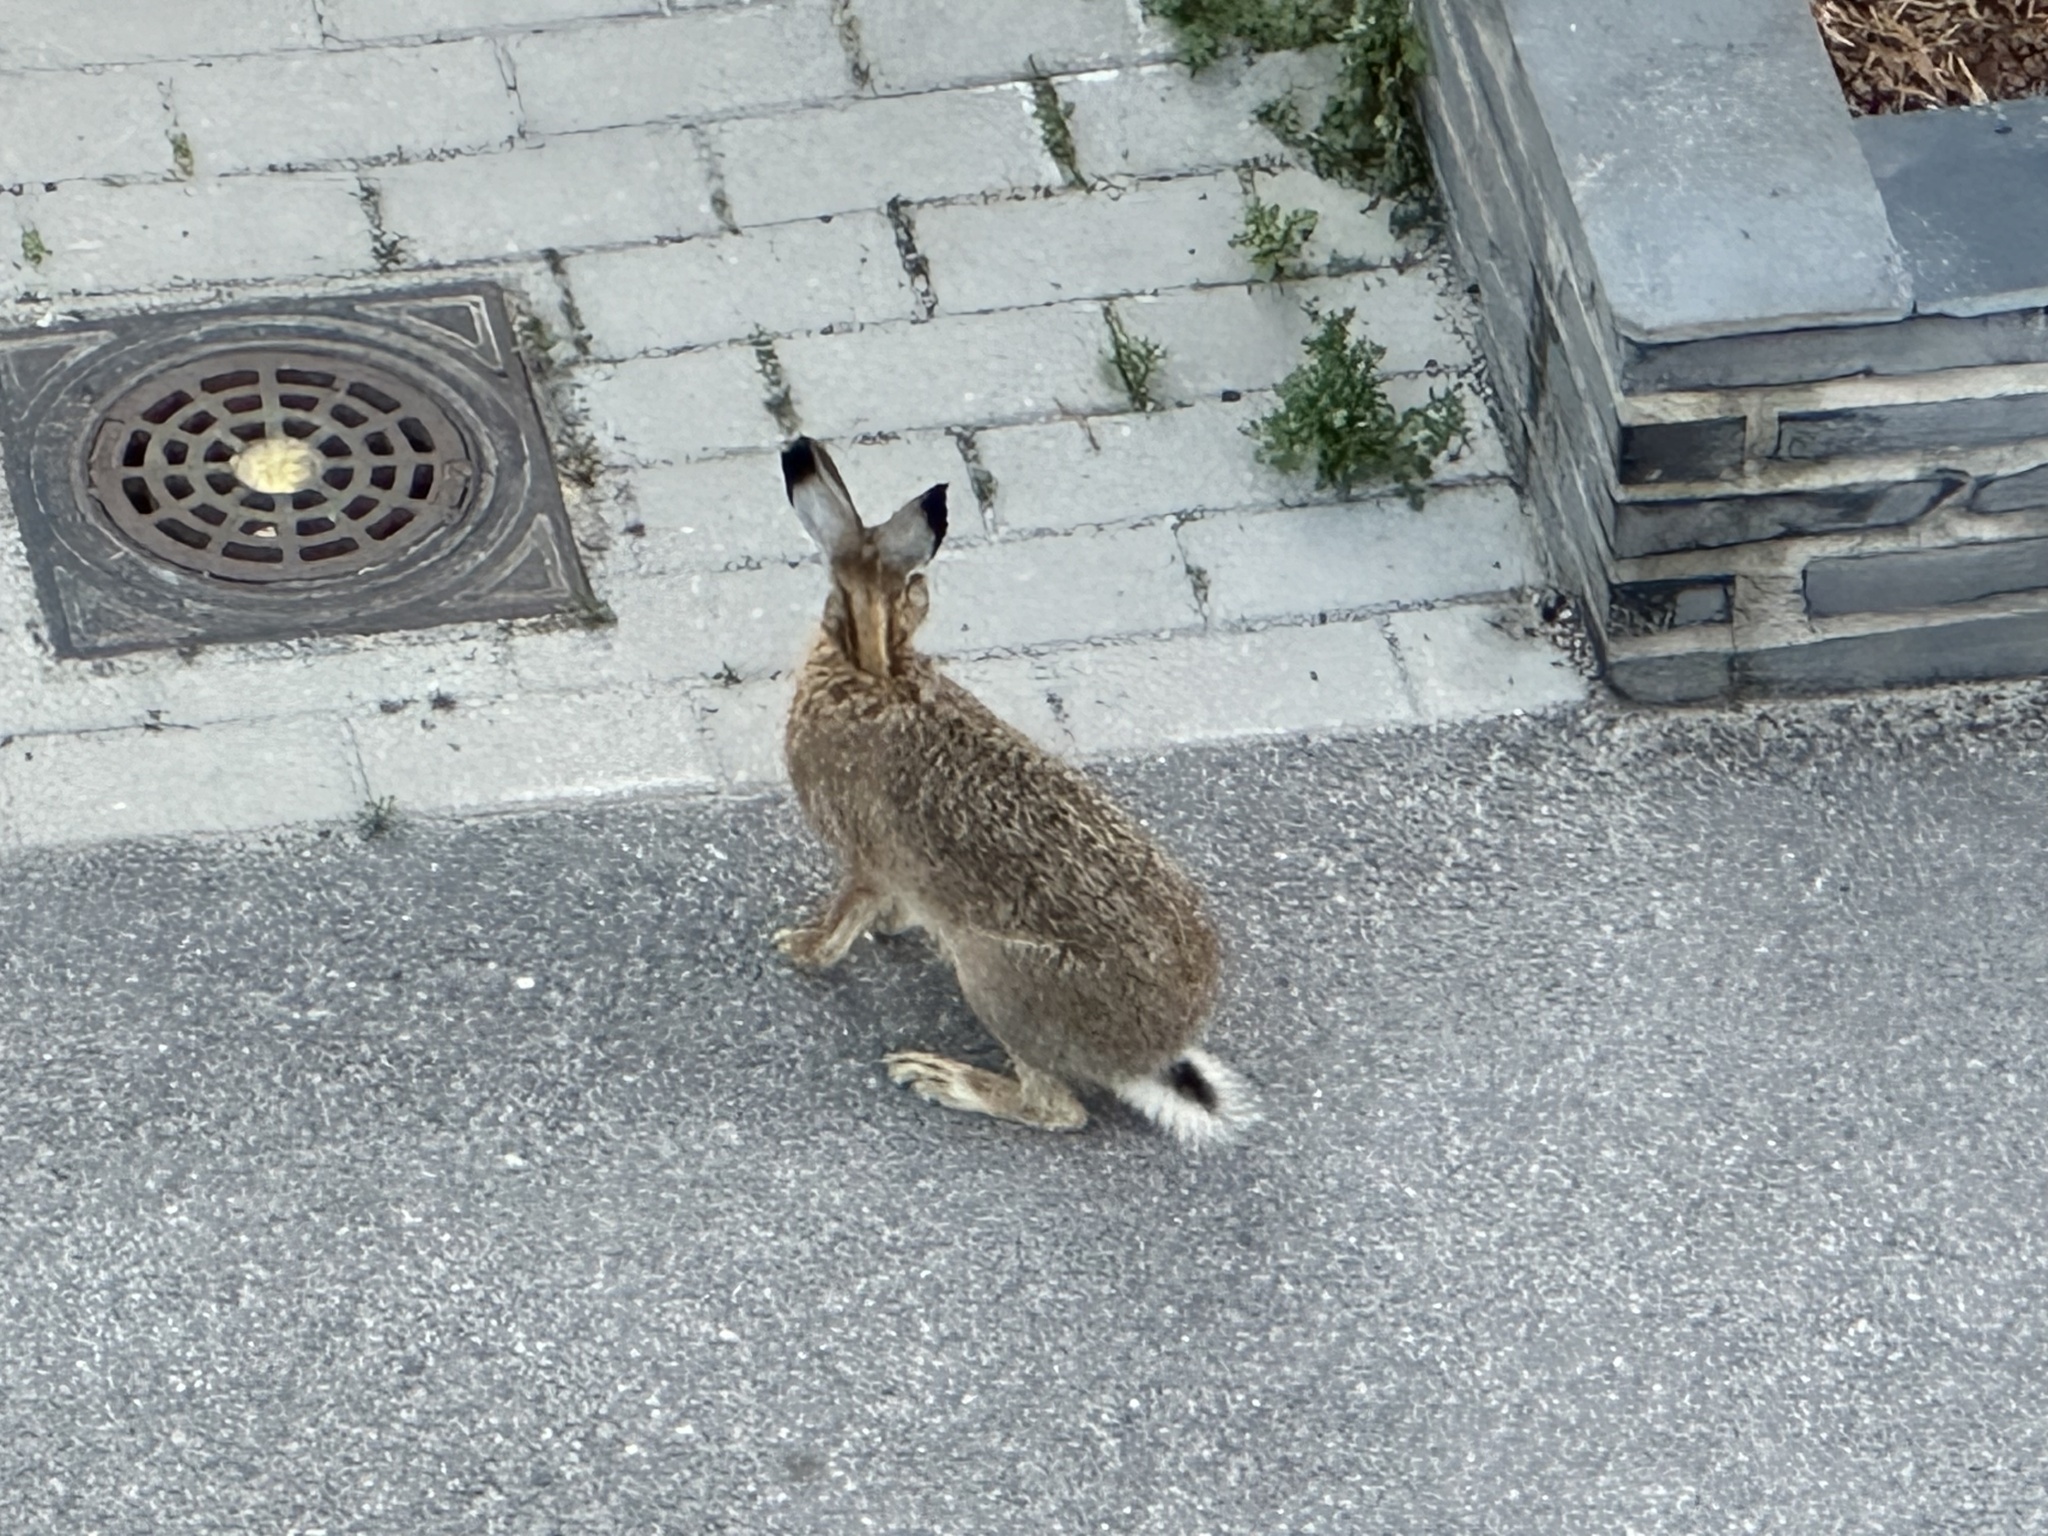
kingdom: Animalia
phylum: Chordata
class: Mammalia
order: Lagomorpha
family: Leporidae
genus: Lepus
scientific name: Lepus europaeus
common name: European hare
